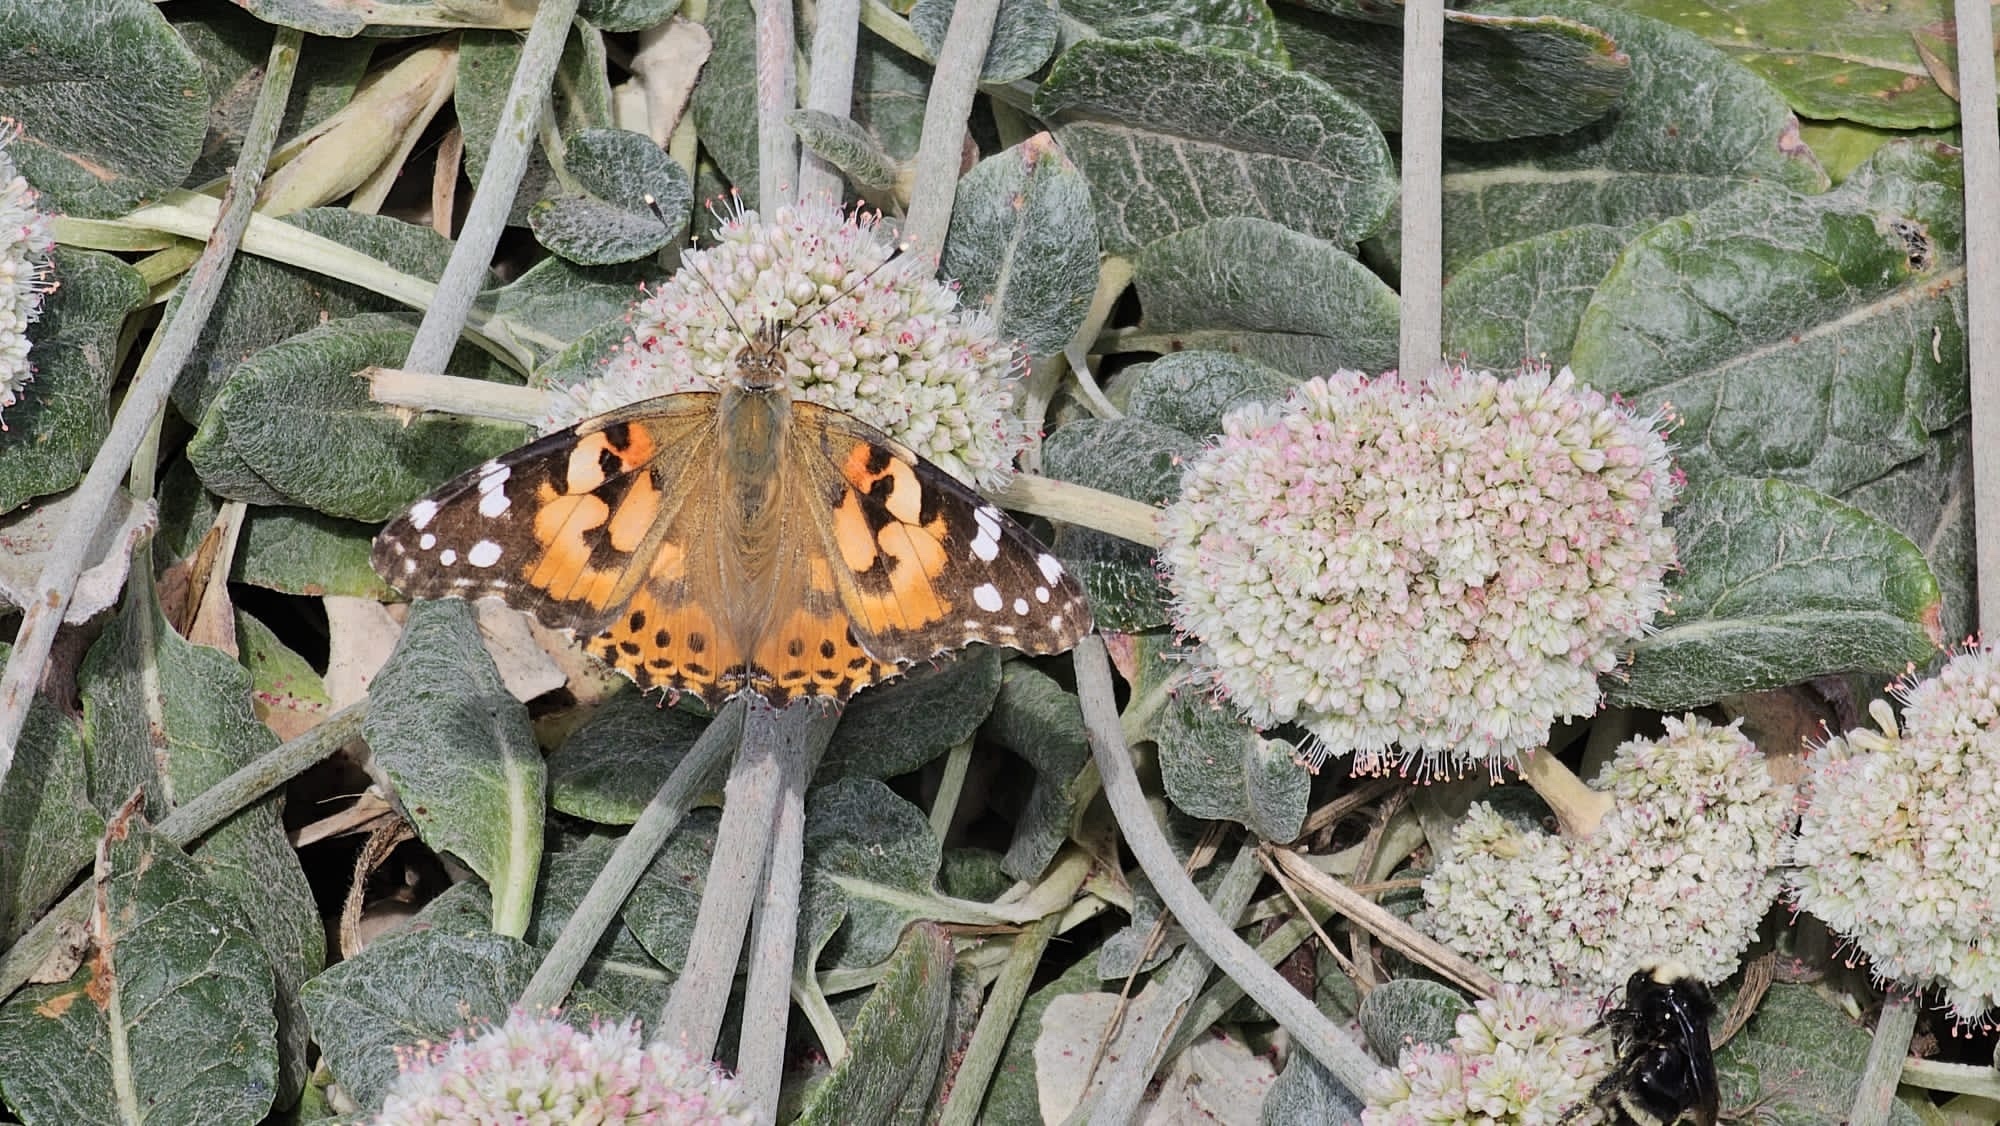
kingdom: Animalia
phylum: Arthropoda
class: Insecta
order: Lepidoptera
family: Nymphalidae
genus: Vanessa
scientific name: Vanessa cardui
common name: Painted lady
